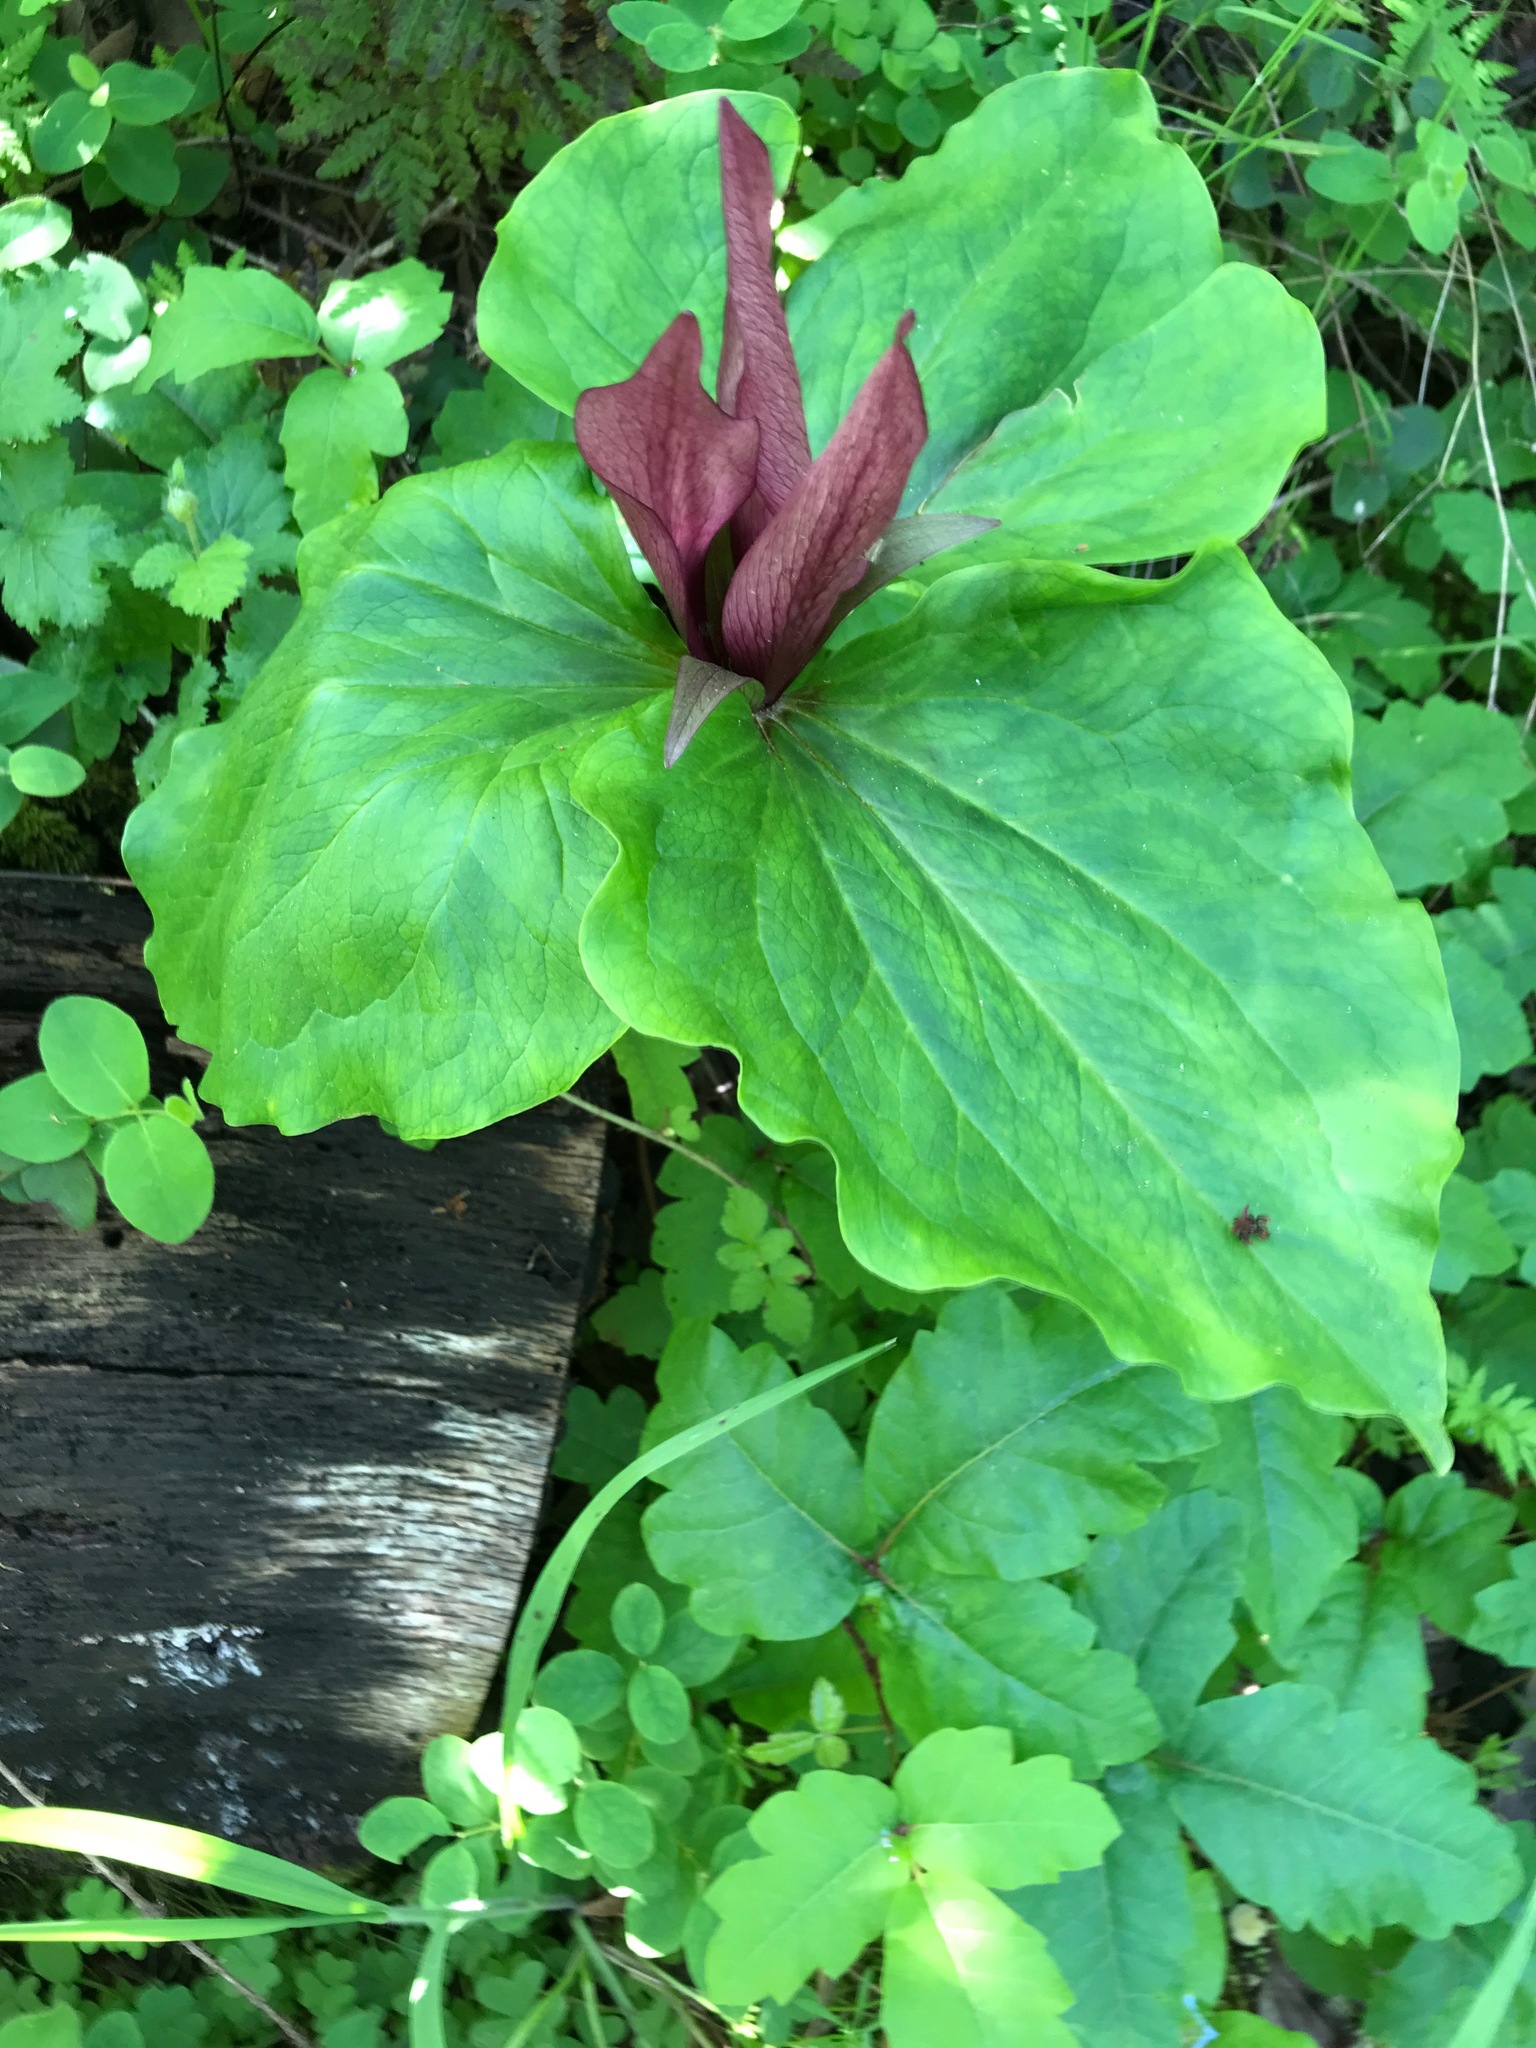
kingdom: Plantae
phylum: Tracheophyta
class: Liliopsida
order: Liliales
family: Melanthiaceae
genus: Trillium
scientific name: Trillium chloropetalum
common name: Giant trillium
